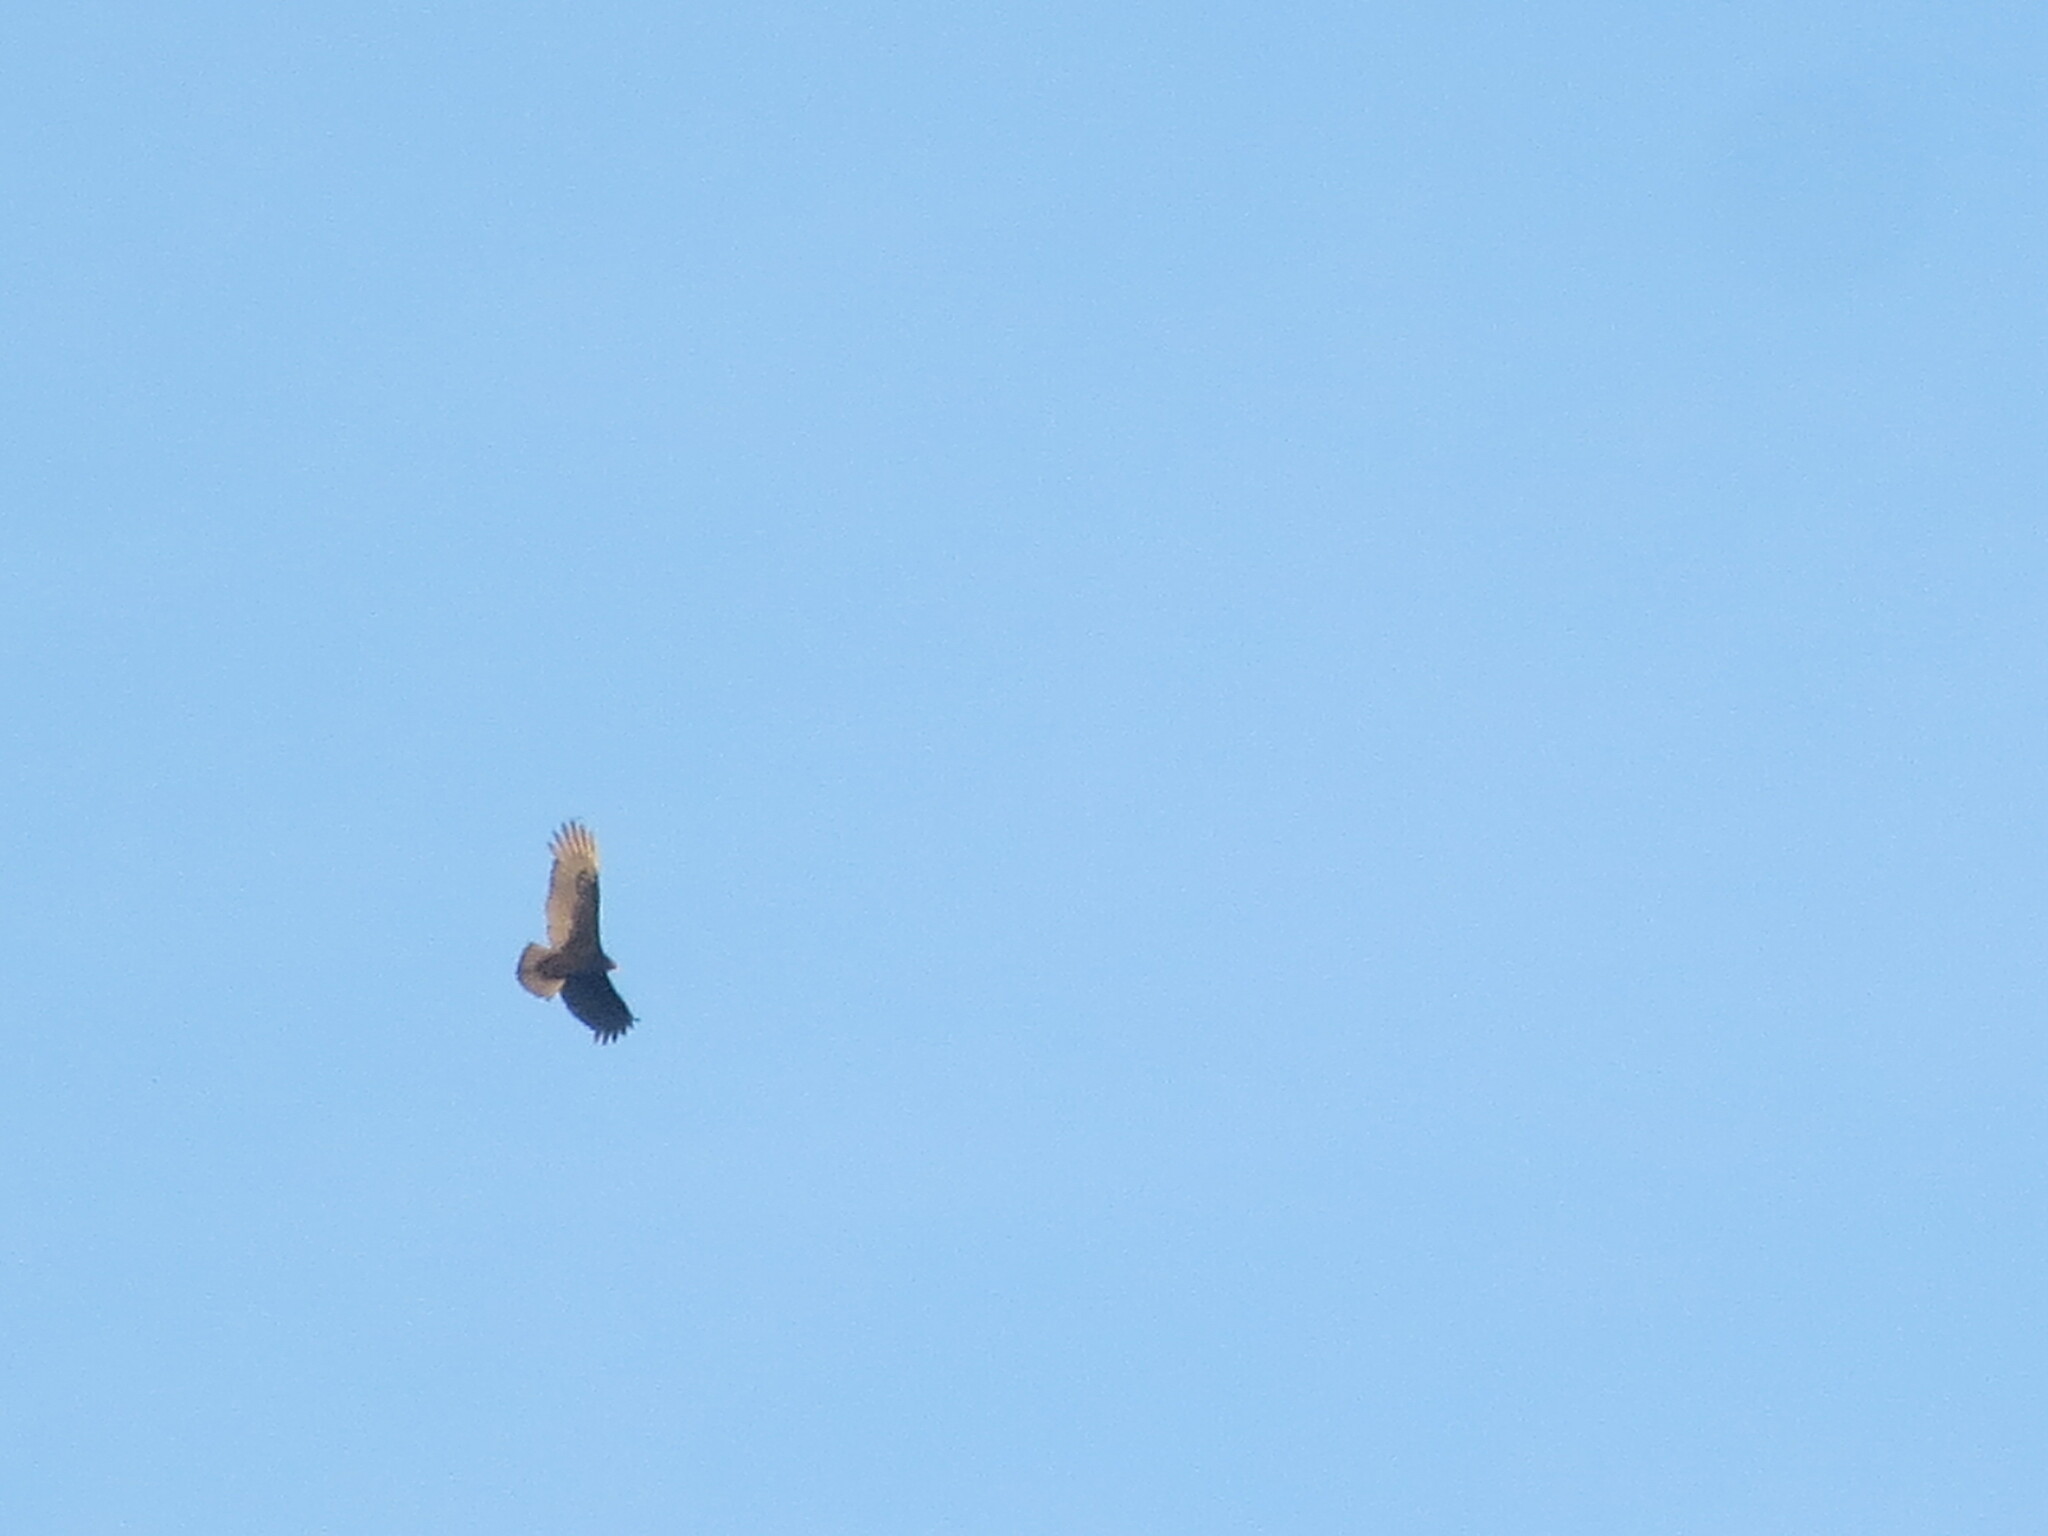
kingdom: Animalia
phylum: Chordata
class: Aves
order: Accipitriformes
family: Cathartidae
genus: Cathartes
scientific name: Cathartes aura
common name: Turkey vulture
